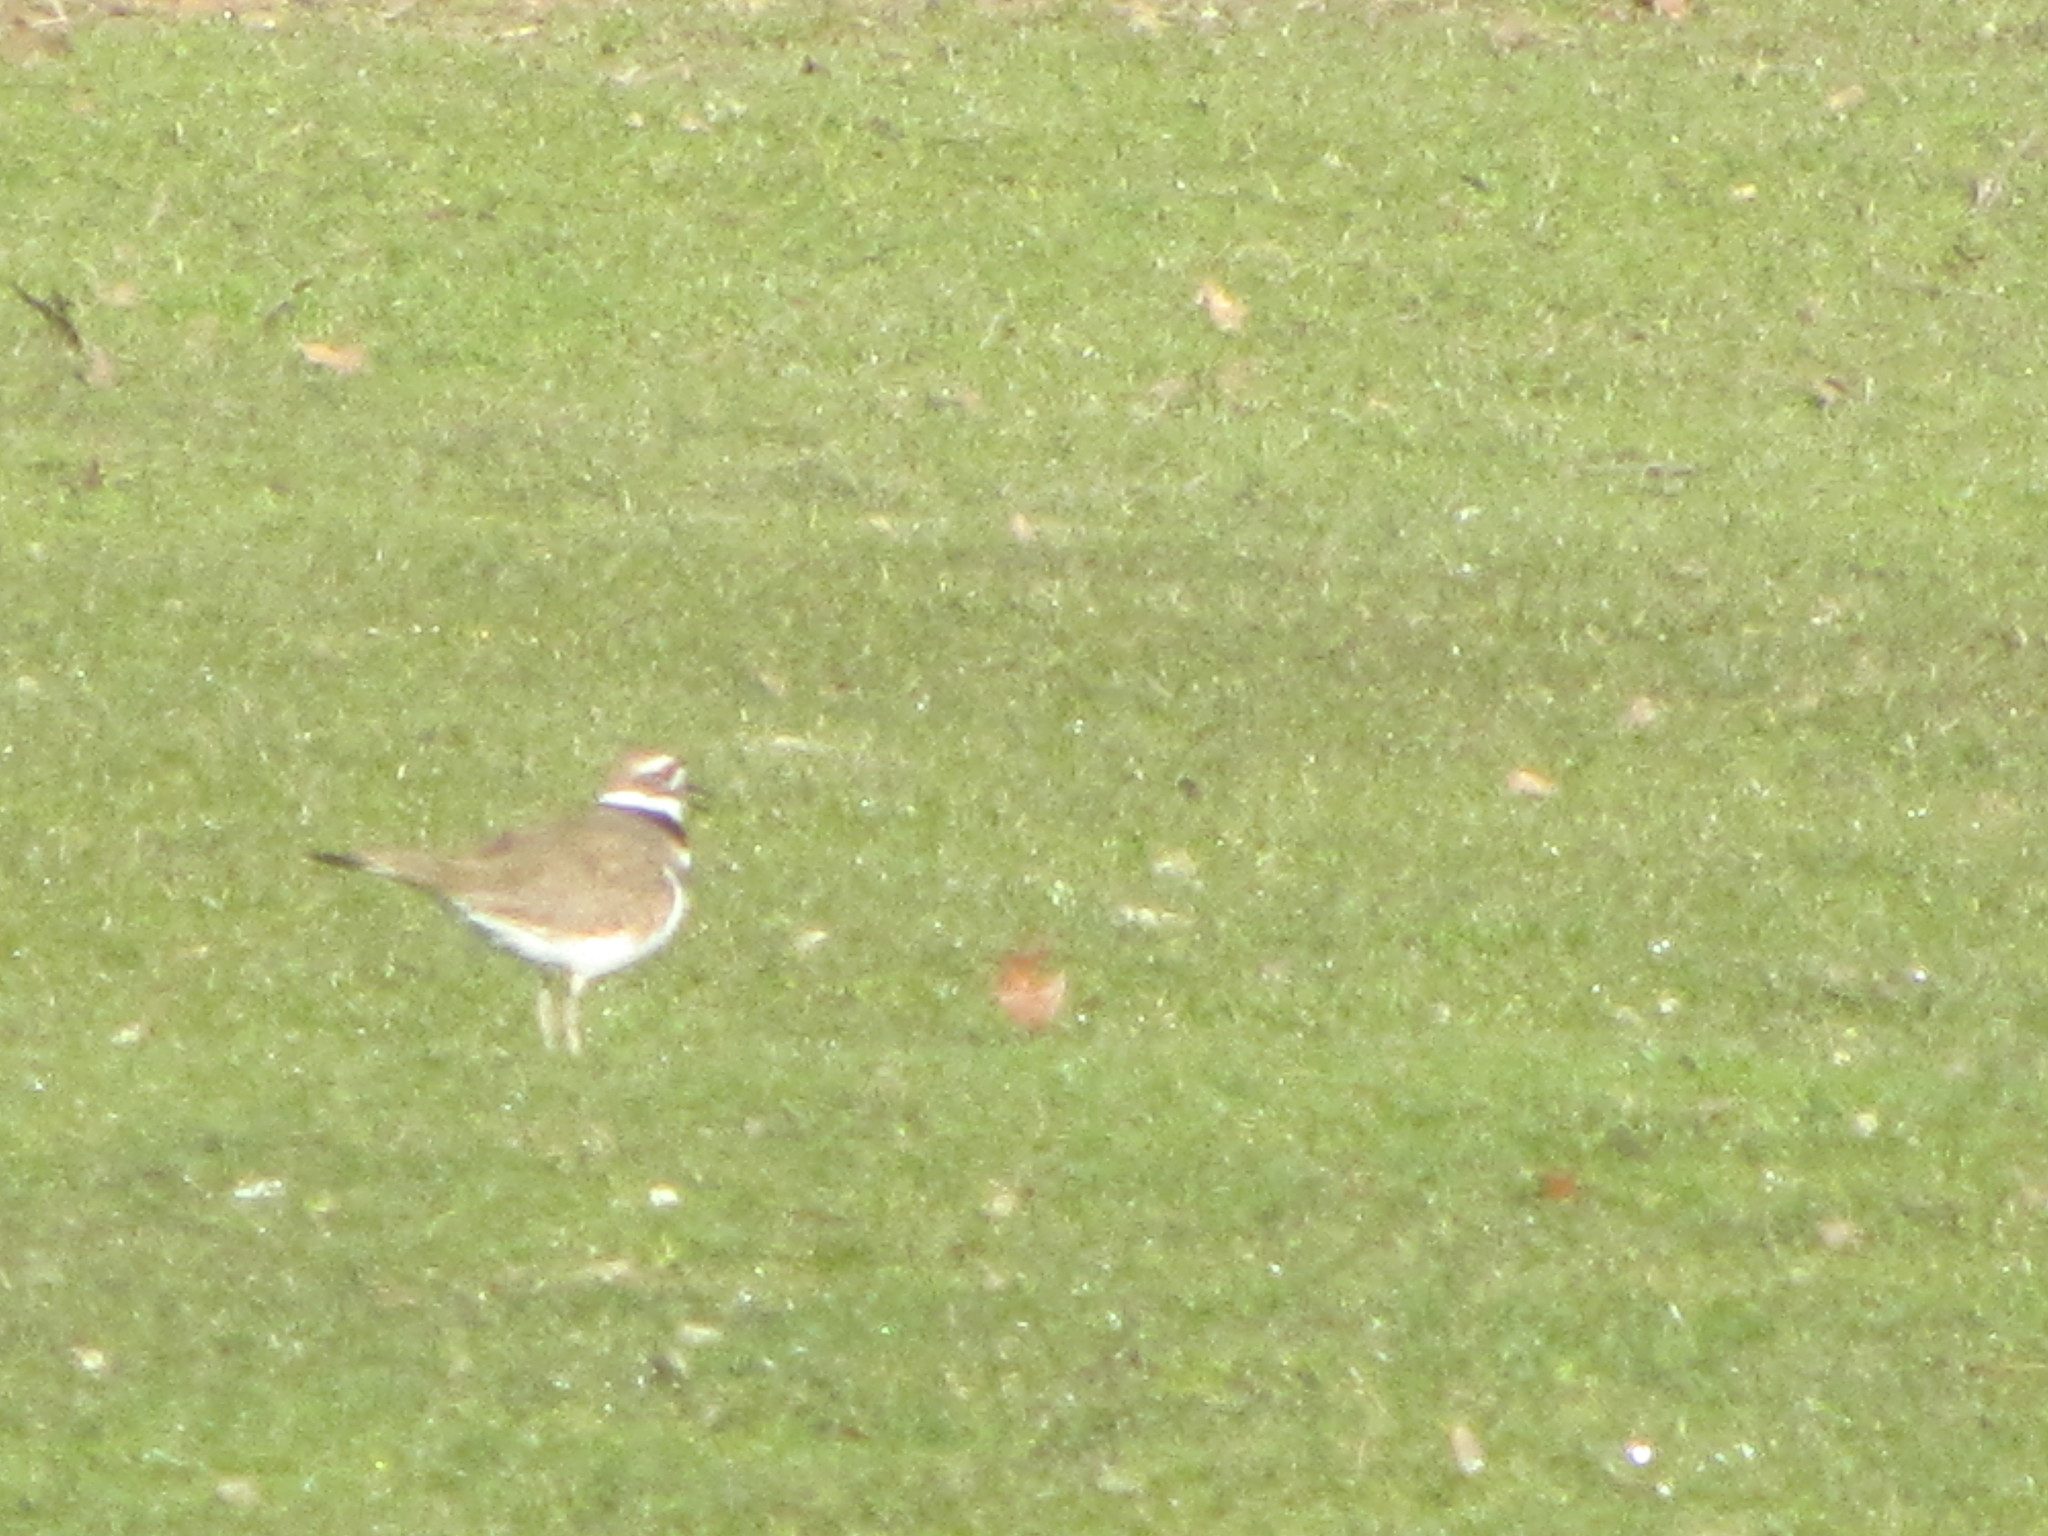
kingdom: Animalia
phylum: Chordata
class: Aves
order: Charadriiformes
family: Charadriidae
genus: Charadrius
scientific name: Charadrius vociferus
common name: Killdeer
